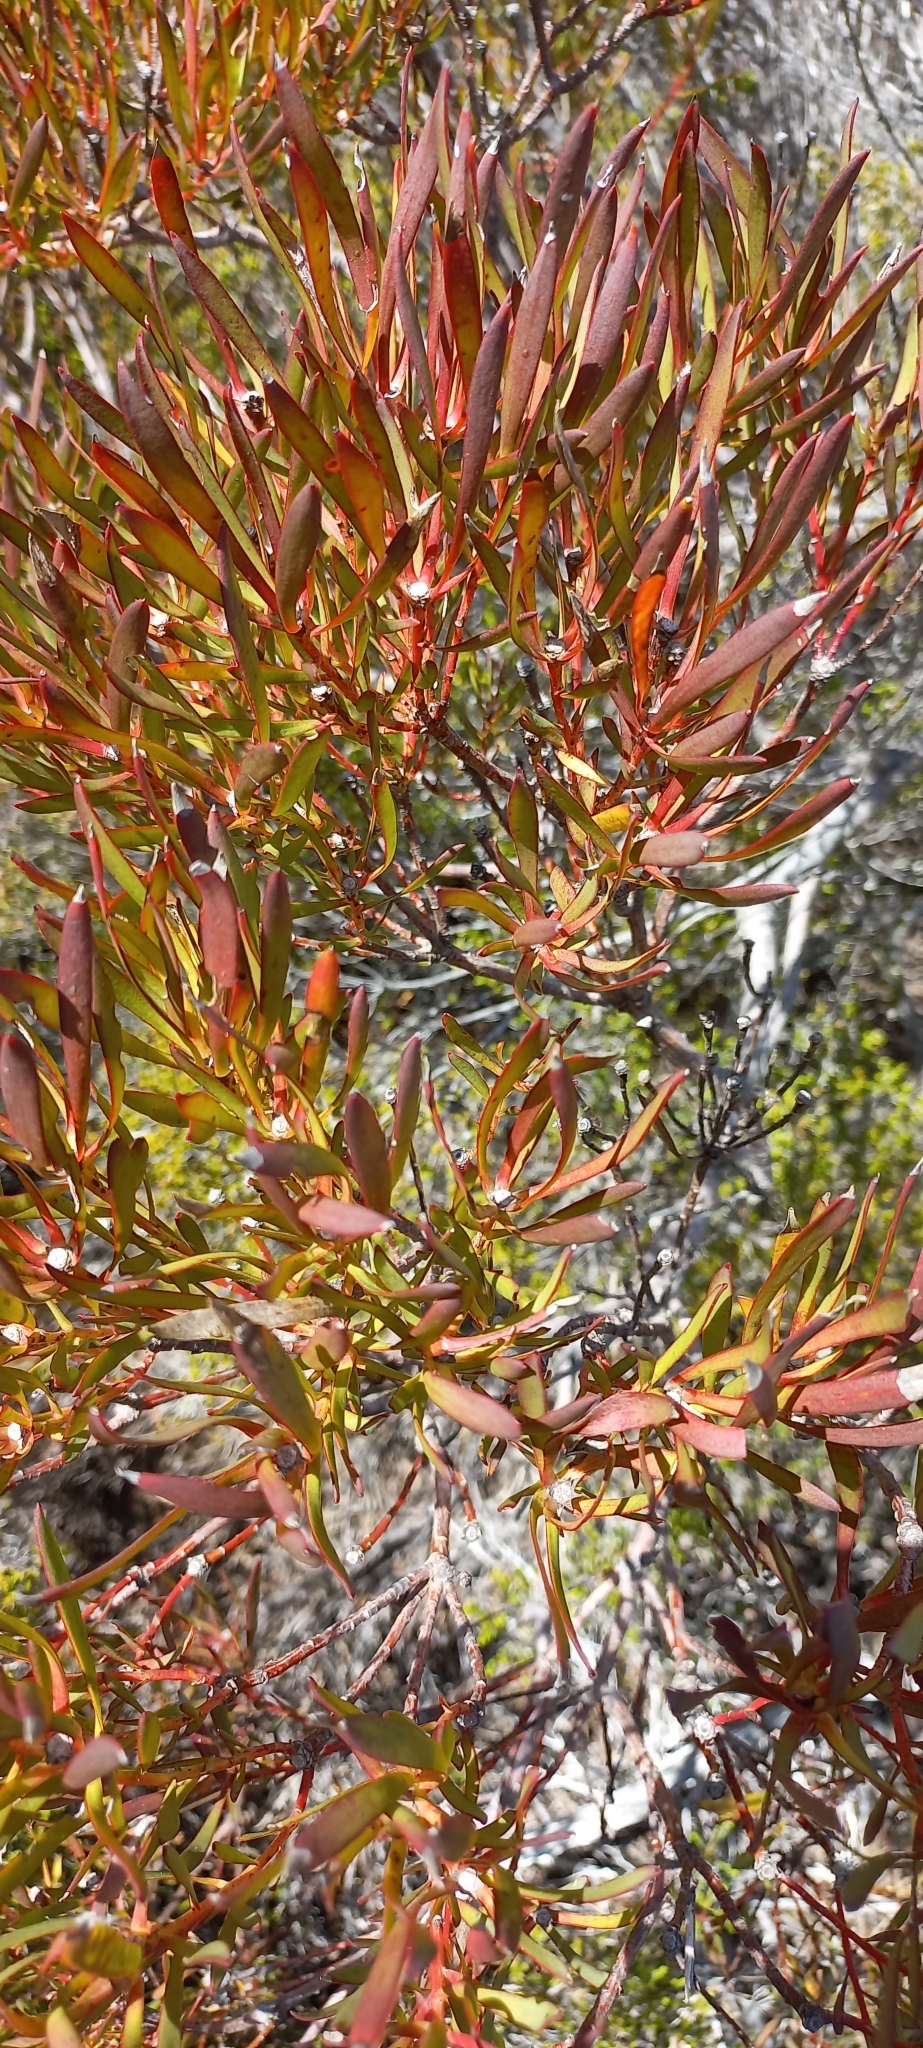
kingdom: Plantae
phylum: Tracheophyta
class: Magnoliopsida
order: Proteales
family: Proteaceae
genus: Leucadendron
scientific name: Leucadendron salignum
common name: Common sunshine conebush
